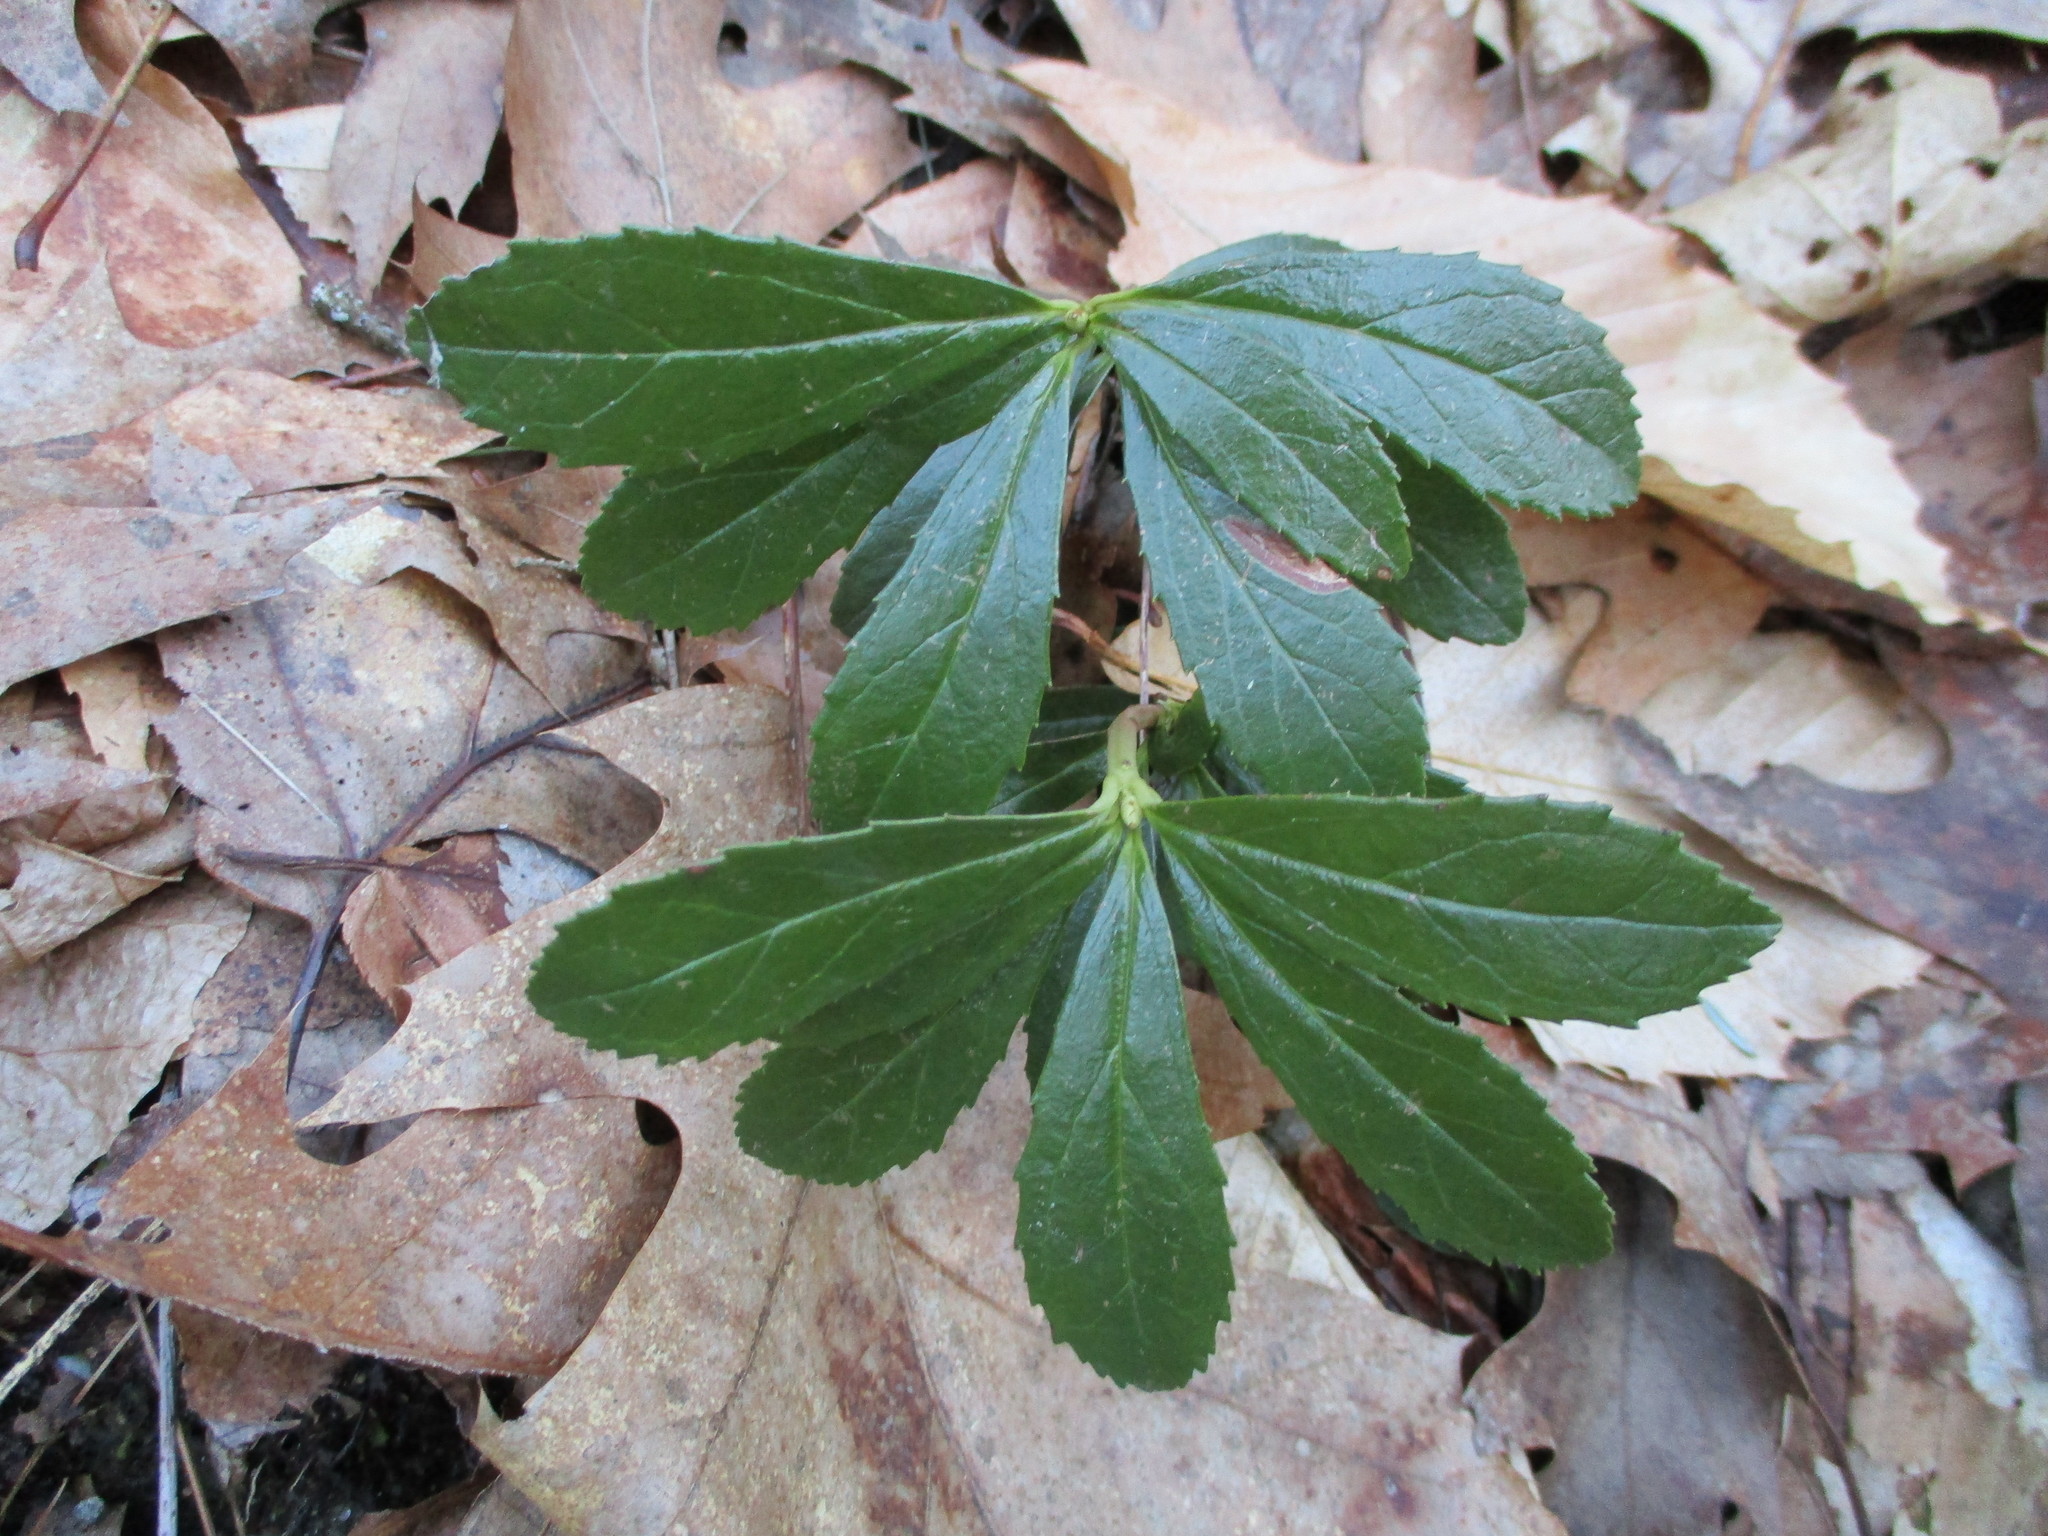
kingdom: Plantae
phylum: Tracheophyta
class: Magnoliopsida
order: Ericales
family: Ericaceae
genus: Chimaphila
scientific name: Chimaphila umbellata
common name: Pipsissewa
